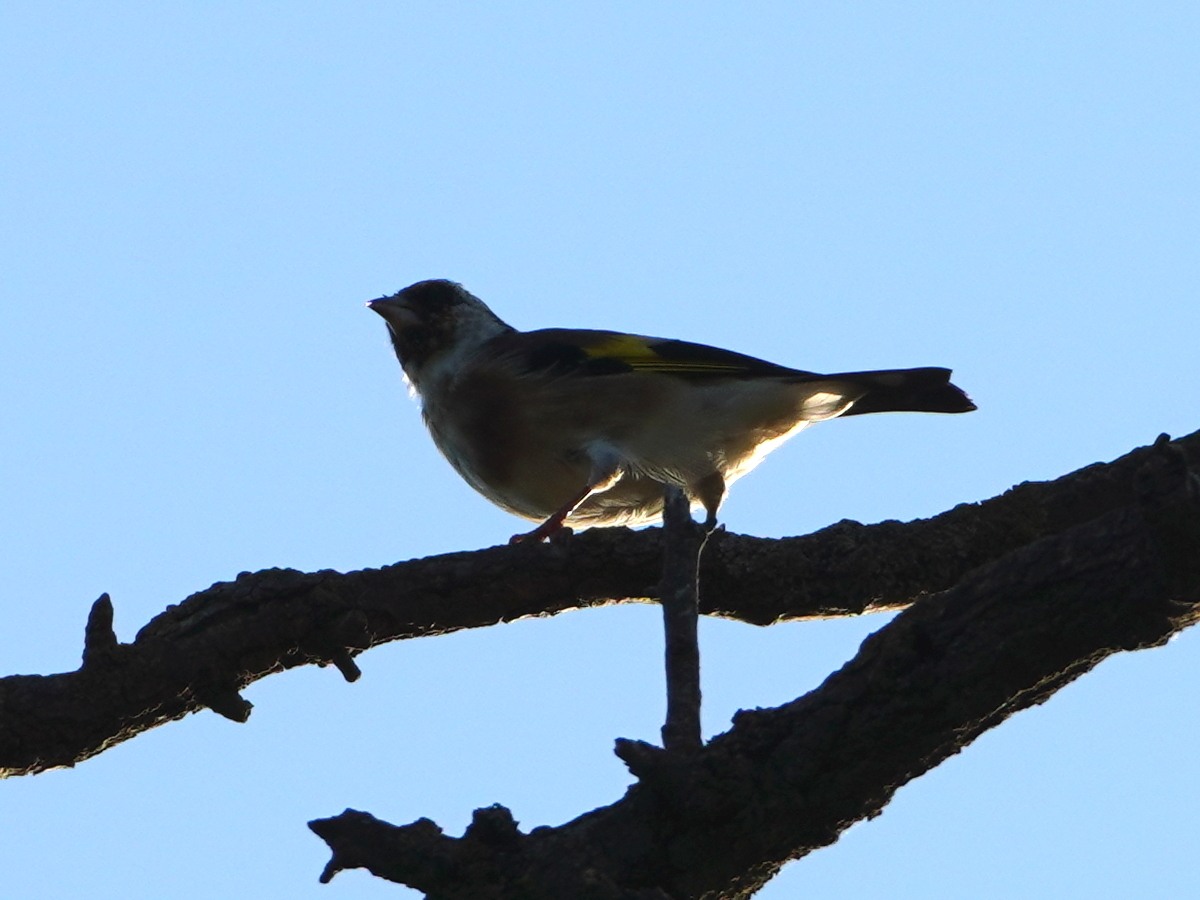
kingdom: Animalia
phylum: Chordata
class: Aves
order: Passeriformes
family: Fringillidae
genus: Carduelis
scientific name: Carduelis carduelis
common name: European goldfinch
